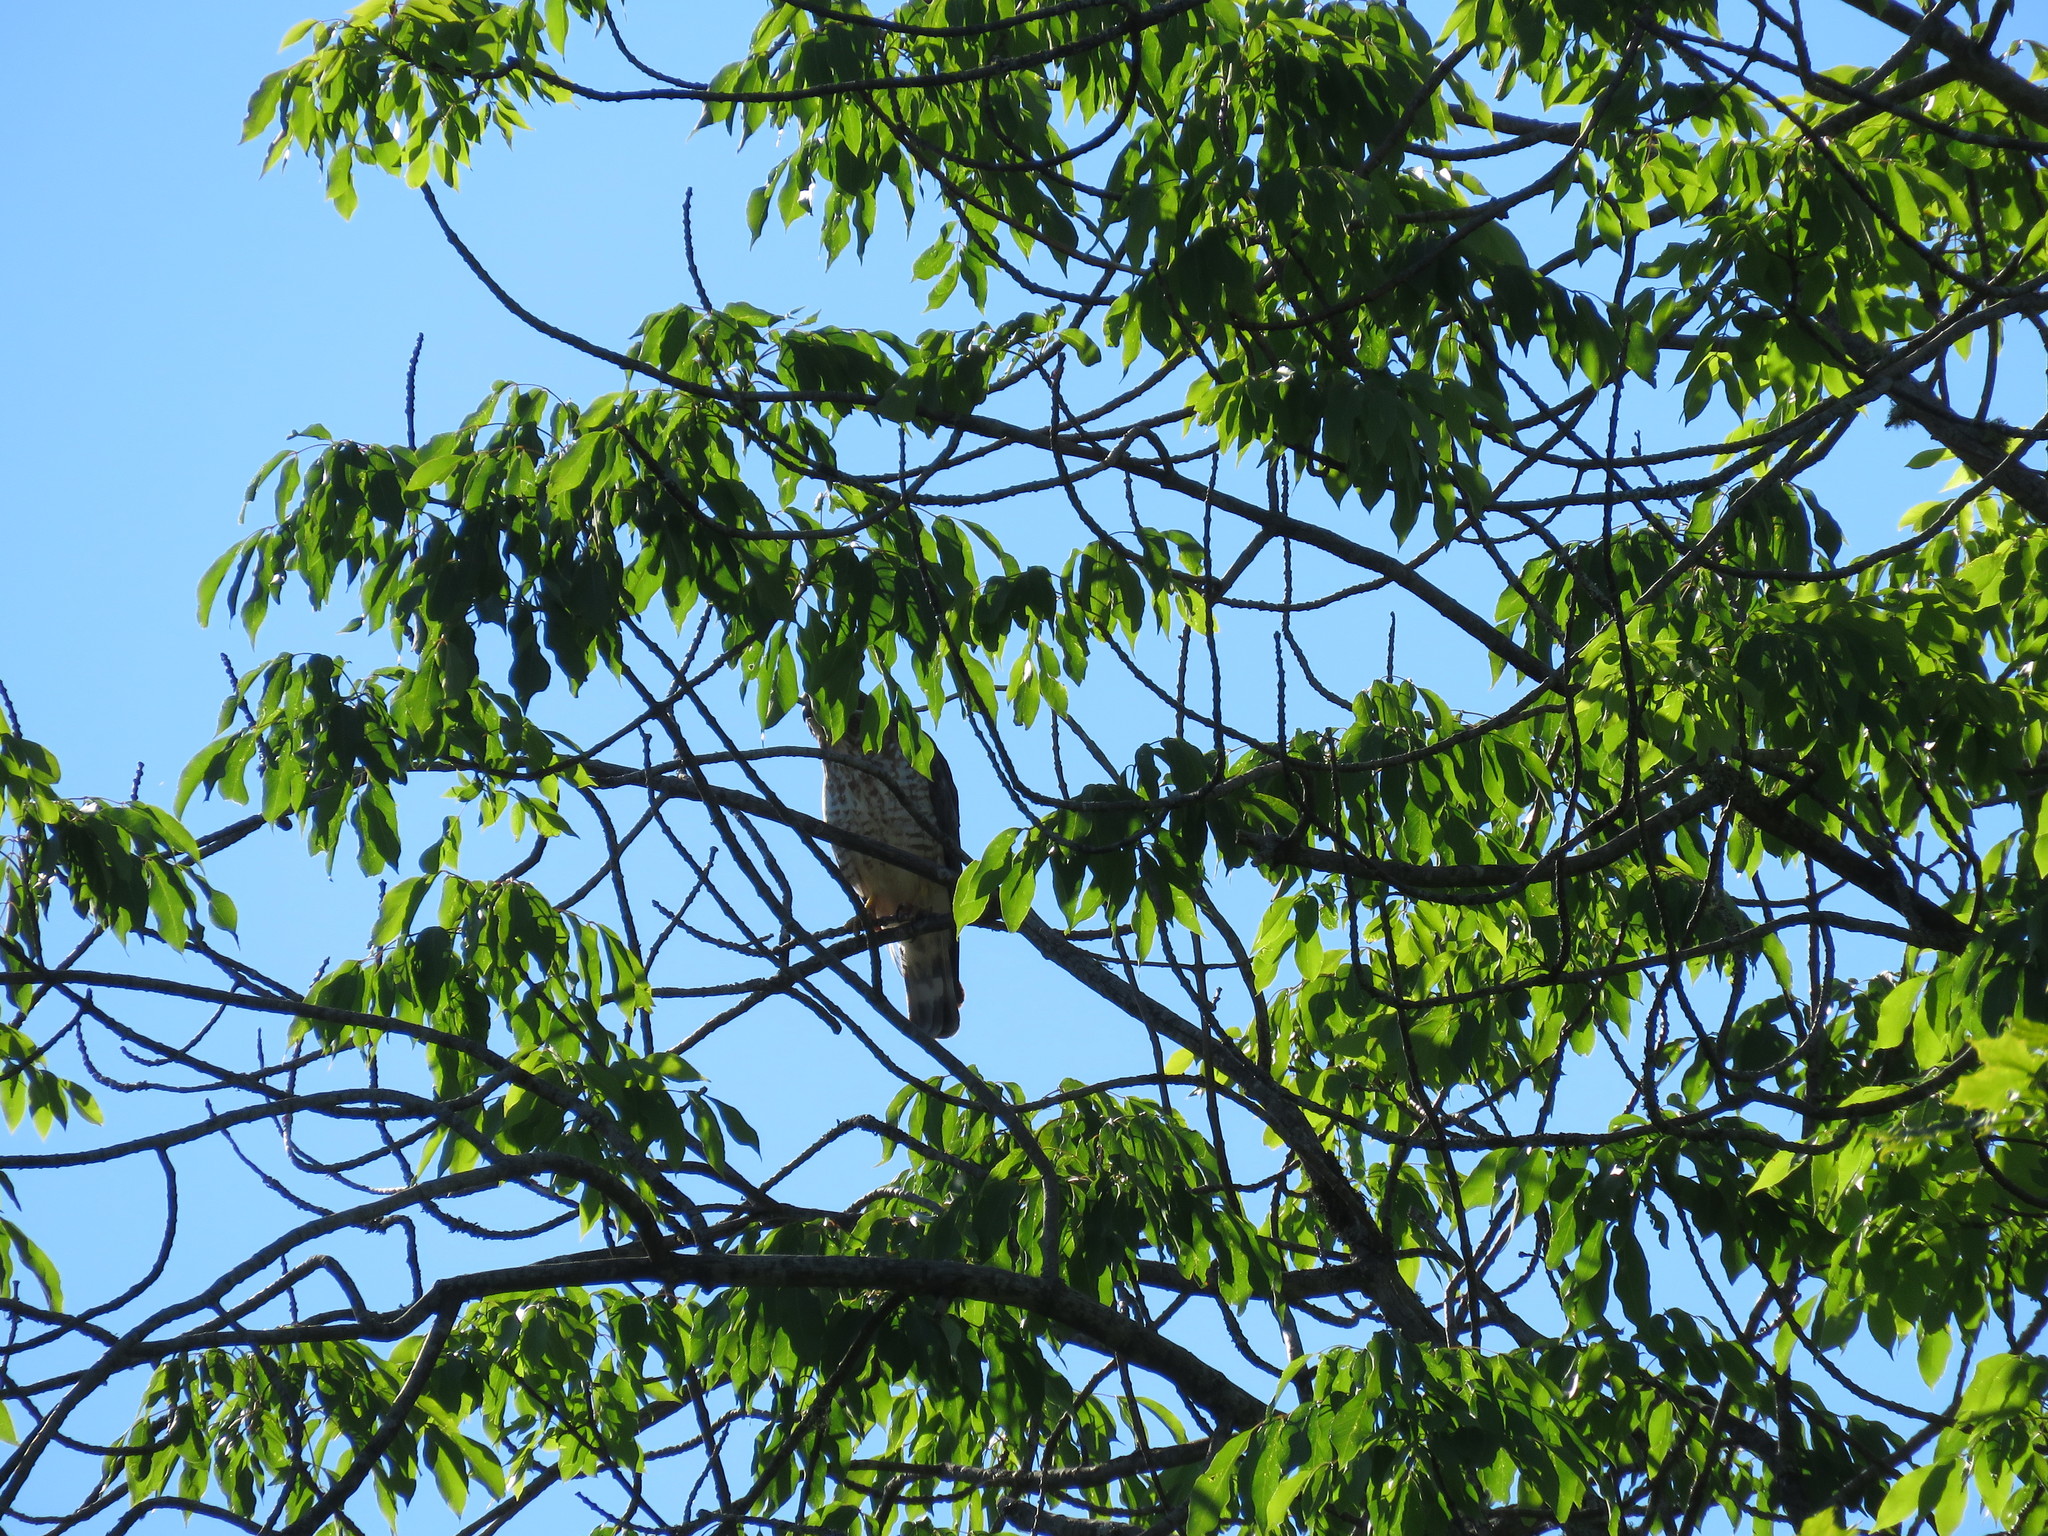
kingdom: Animalia
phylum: Chordata
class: Aves
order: Accipitriformes
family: Accipitridae
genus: Buteo
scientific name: Buteo platypterus
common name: Broad-winged hawk
